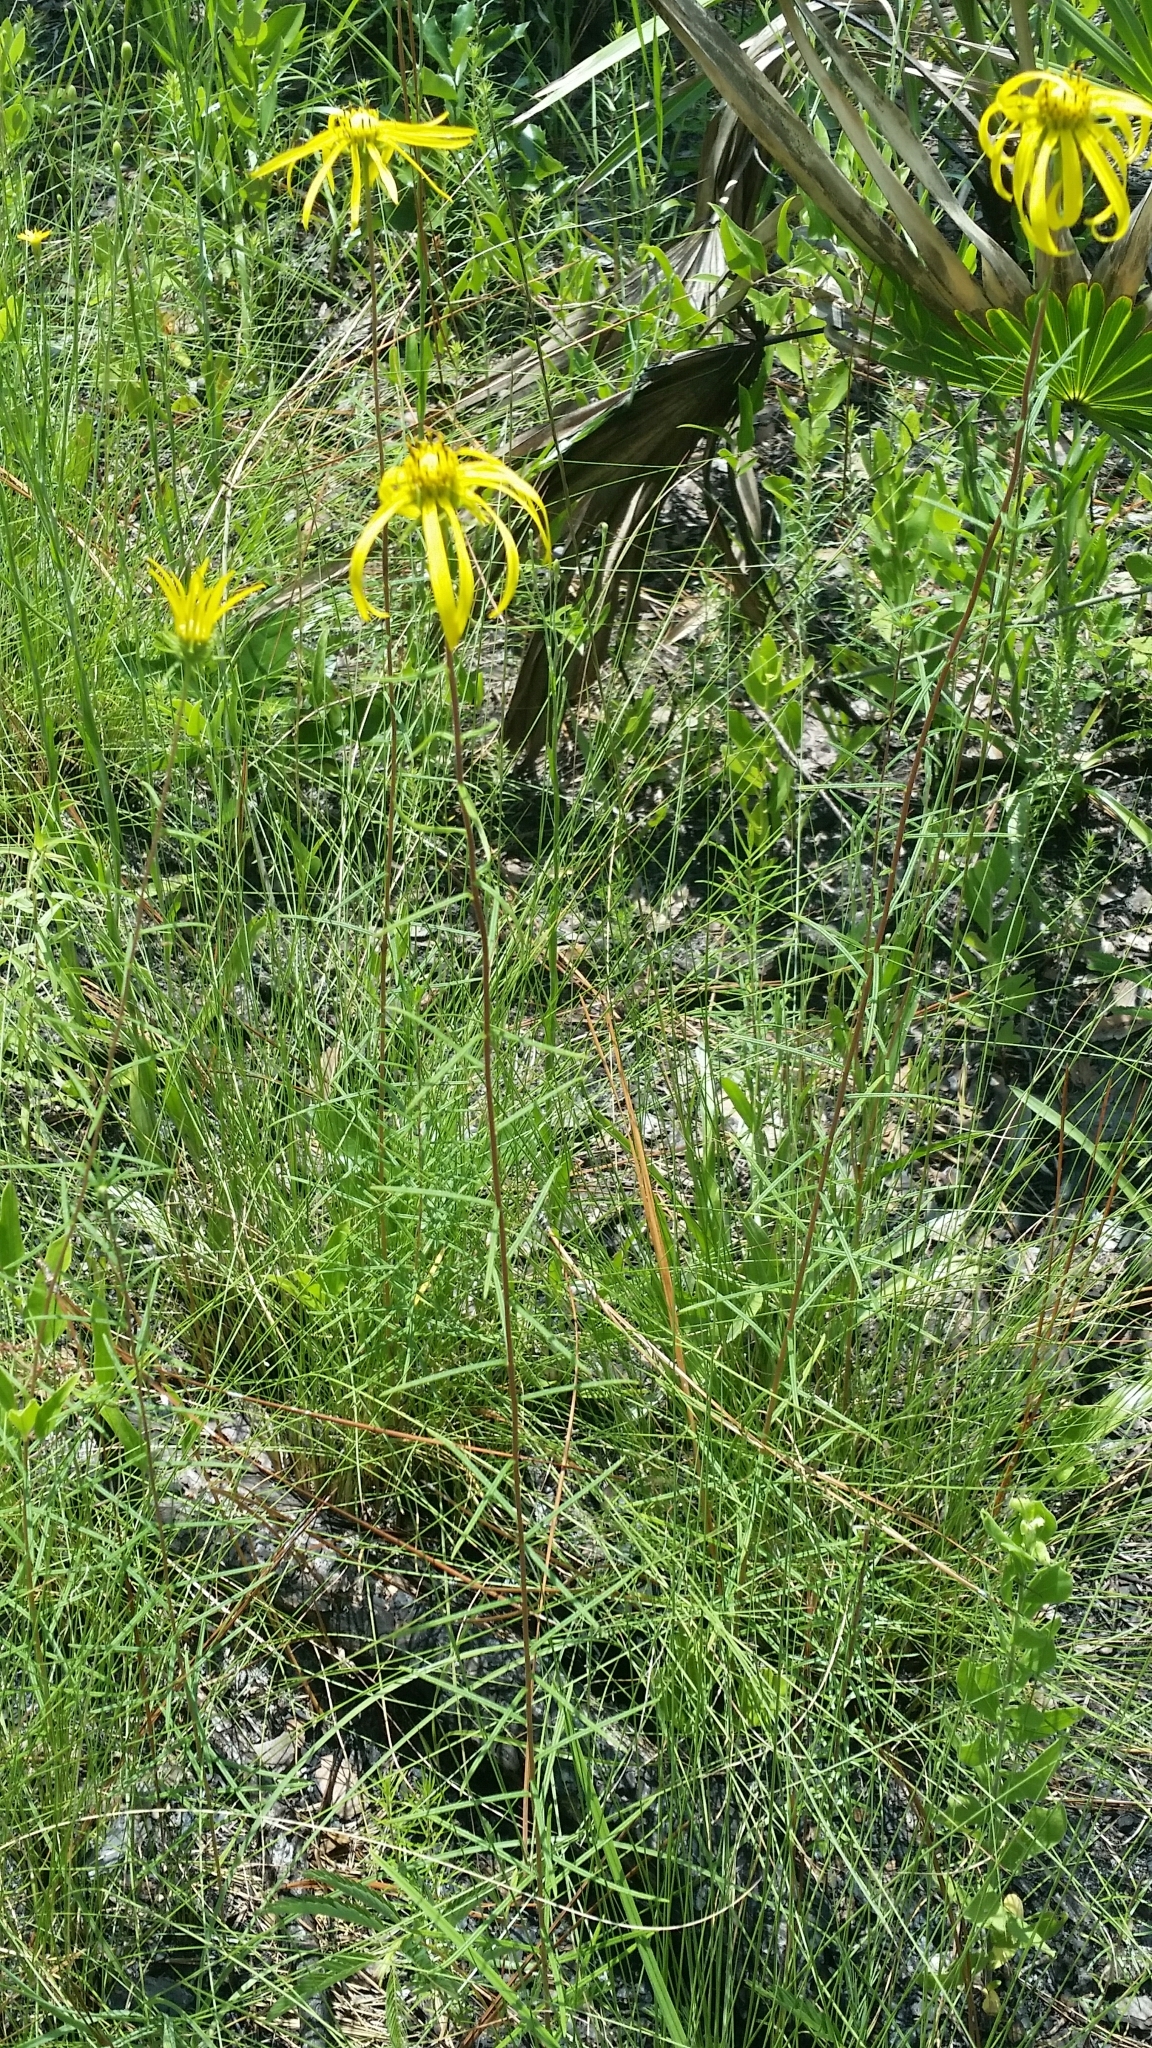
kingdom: Plantae
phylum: Tracheophyta
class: Magnoliopsida
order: Asterales
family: Asteraceae
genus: Phoebanthus
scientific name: Phoebanthus tenuifolia
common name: Pineland false sunflower
